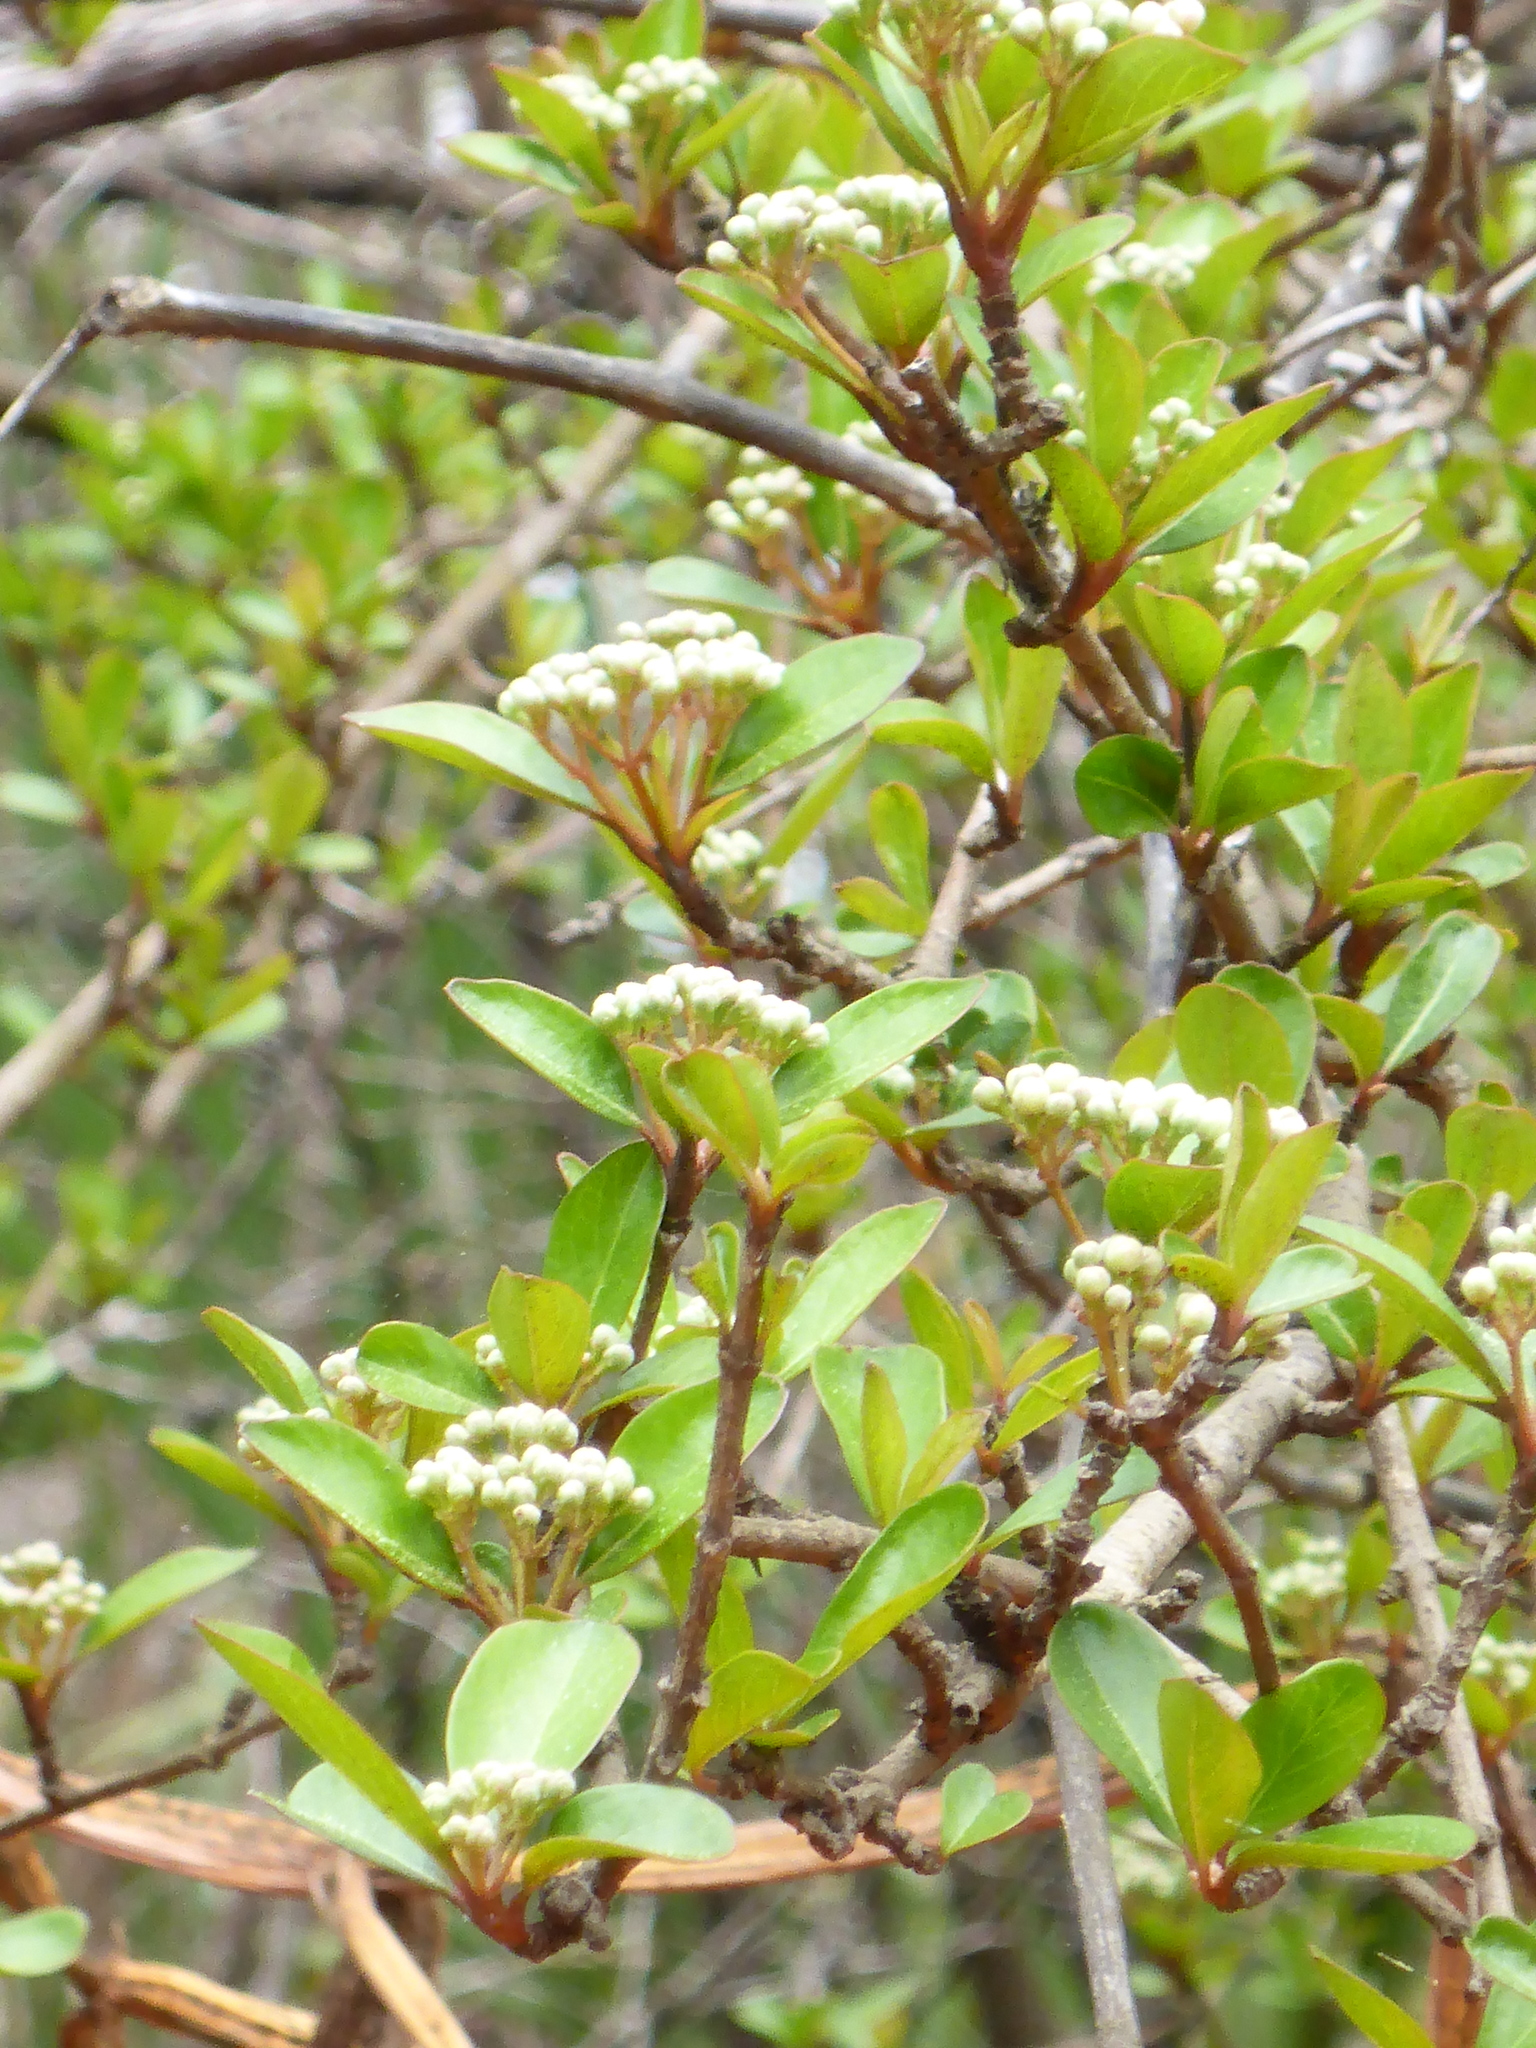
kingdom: Plantae
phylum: Tracheophyta
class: Magnoliopsida
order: Dipsacales
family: Viburnaceae
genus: Viburnum
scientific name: Viburnum obovatum
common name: Walter's viburnum
